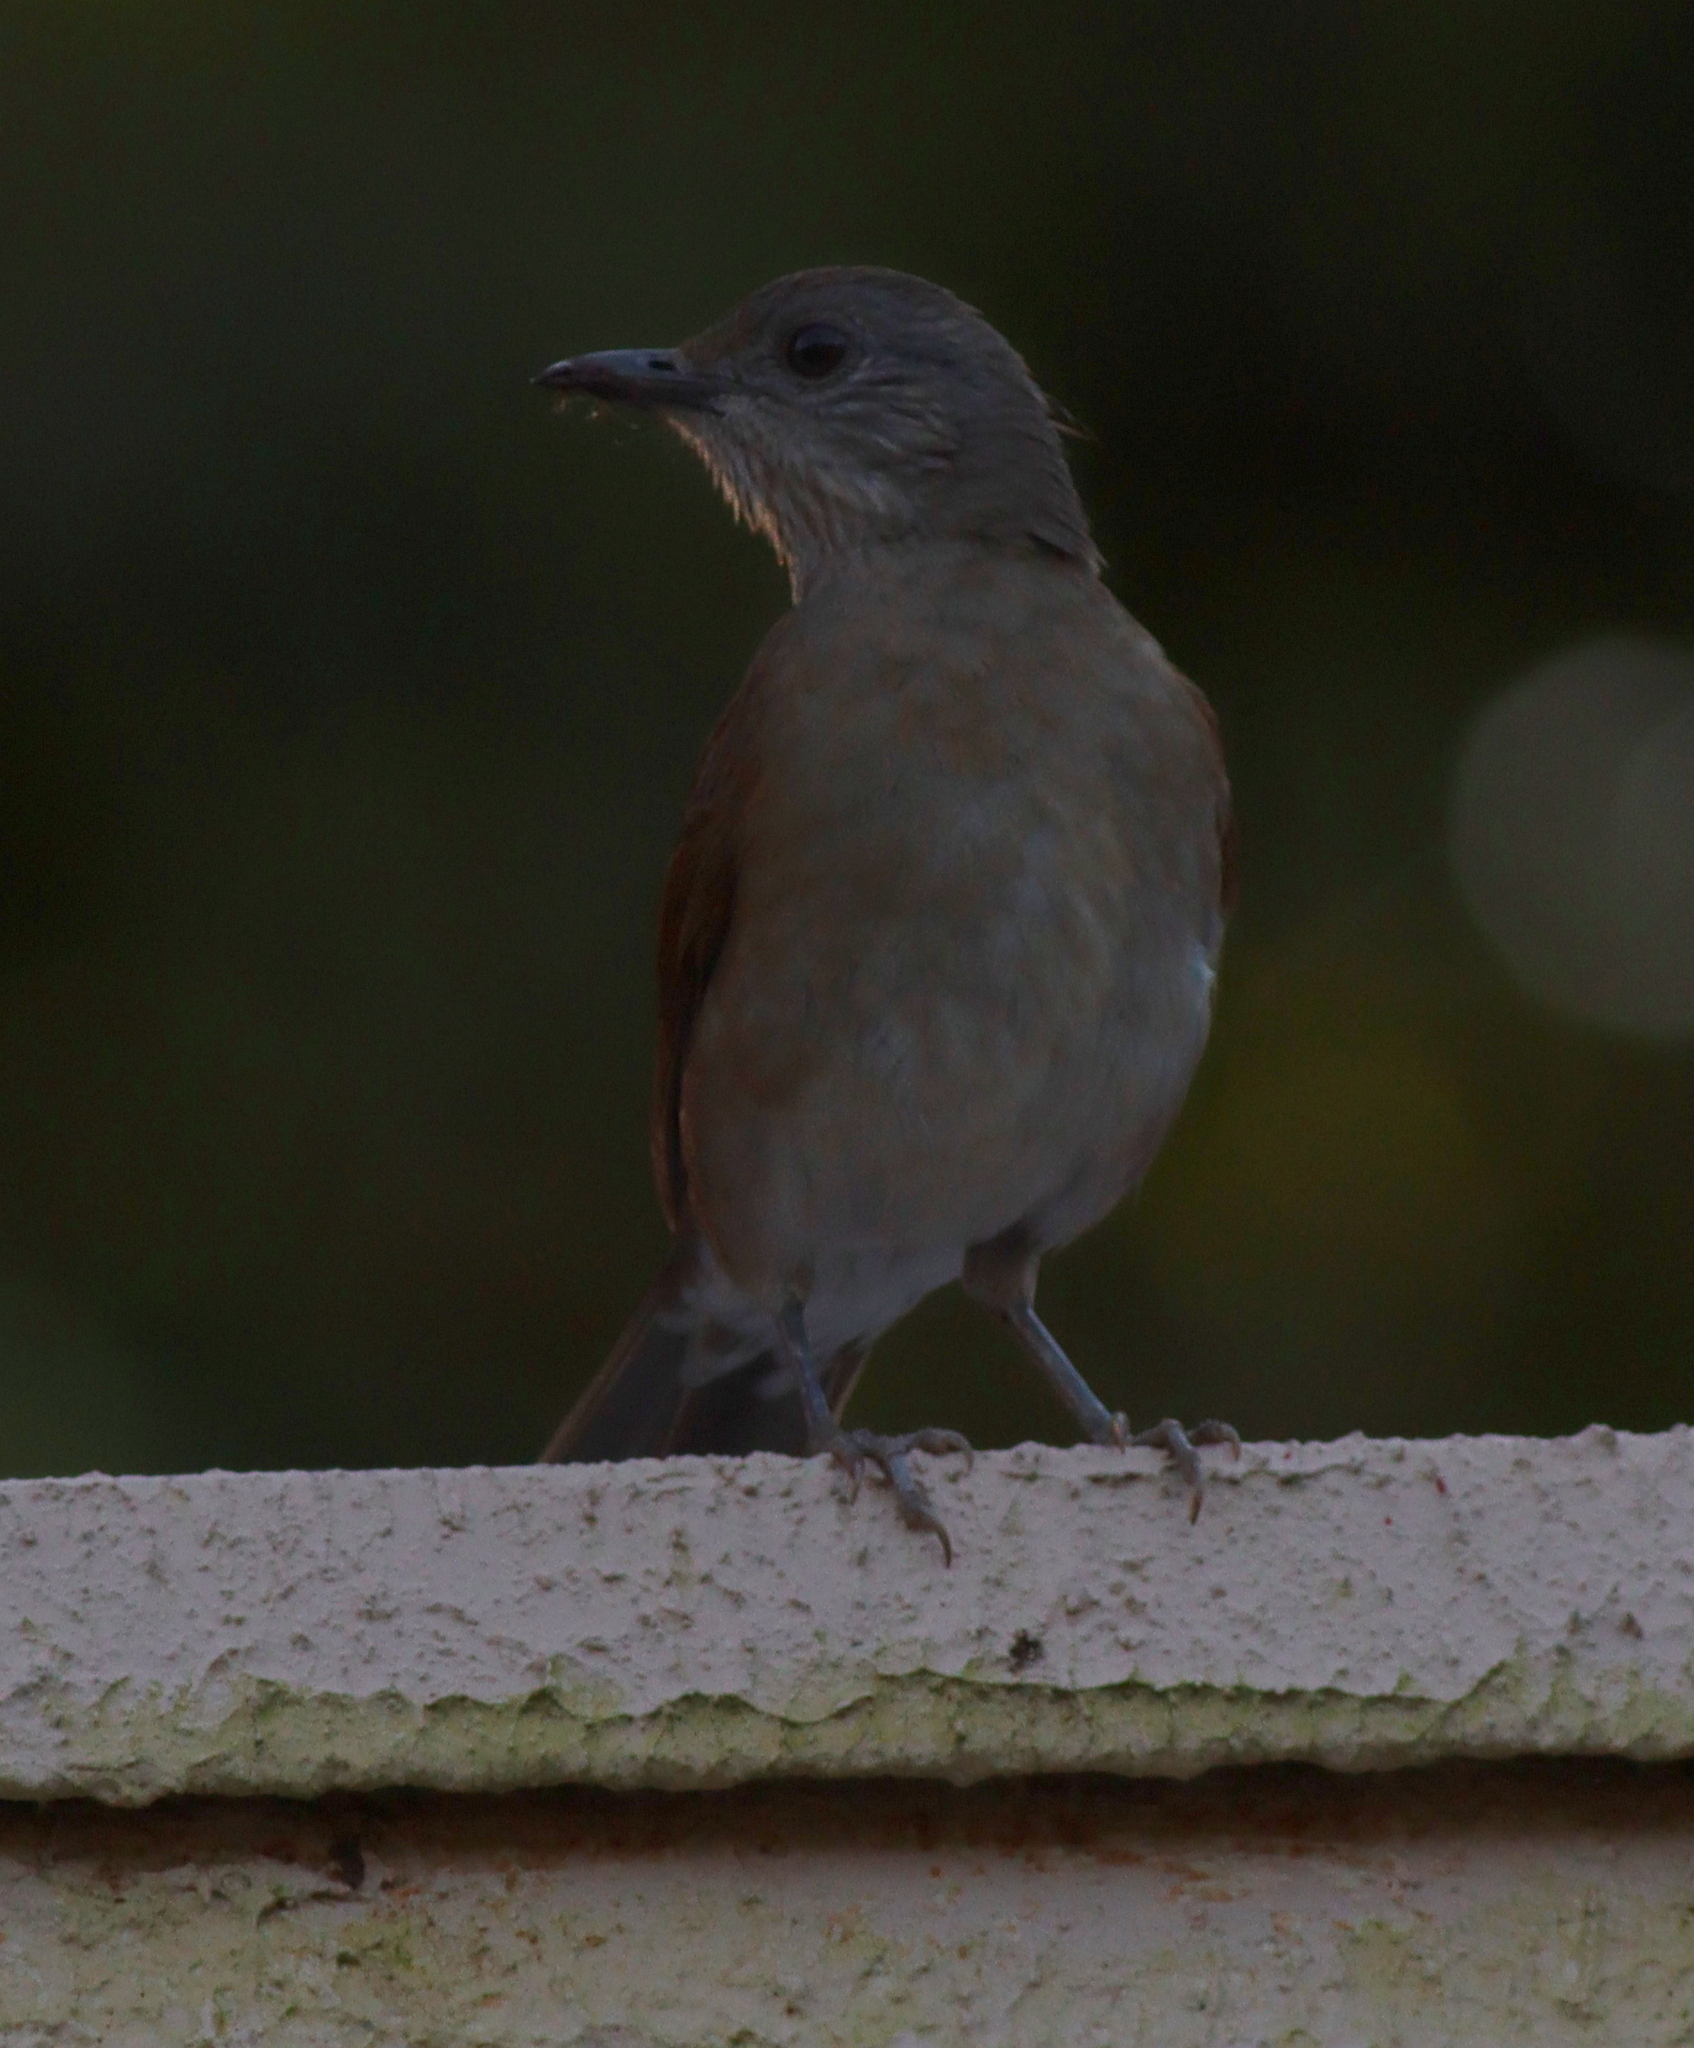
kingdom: Animalia
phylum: Chordata
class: Aves
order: Passeriformes
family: Turdidae
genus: Turdus
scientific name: Turdus leucomelas
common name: Pale-breasted thrush
